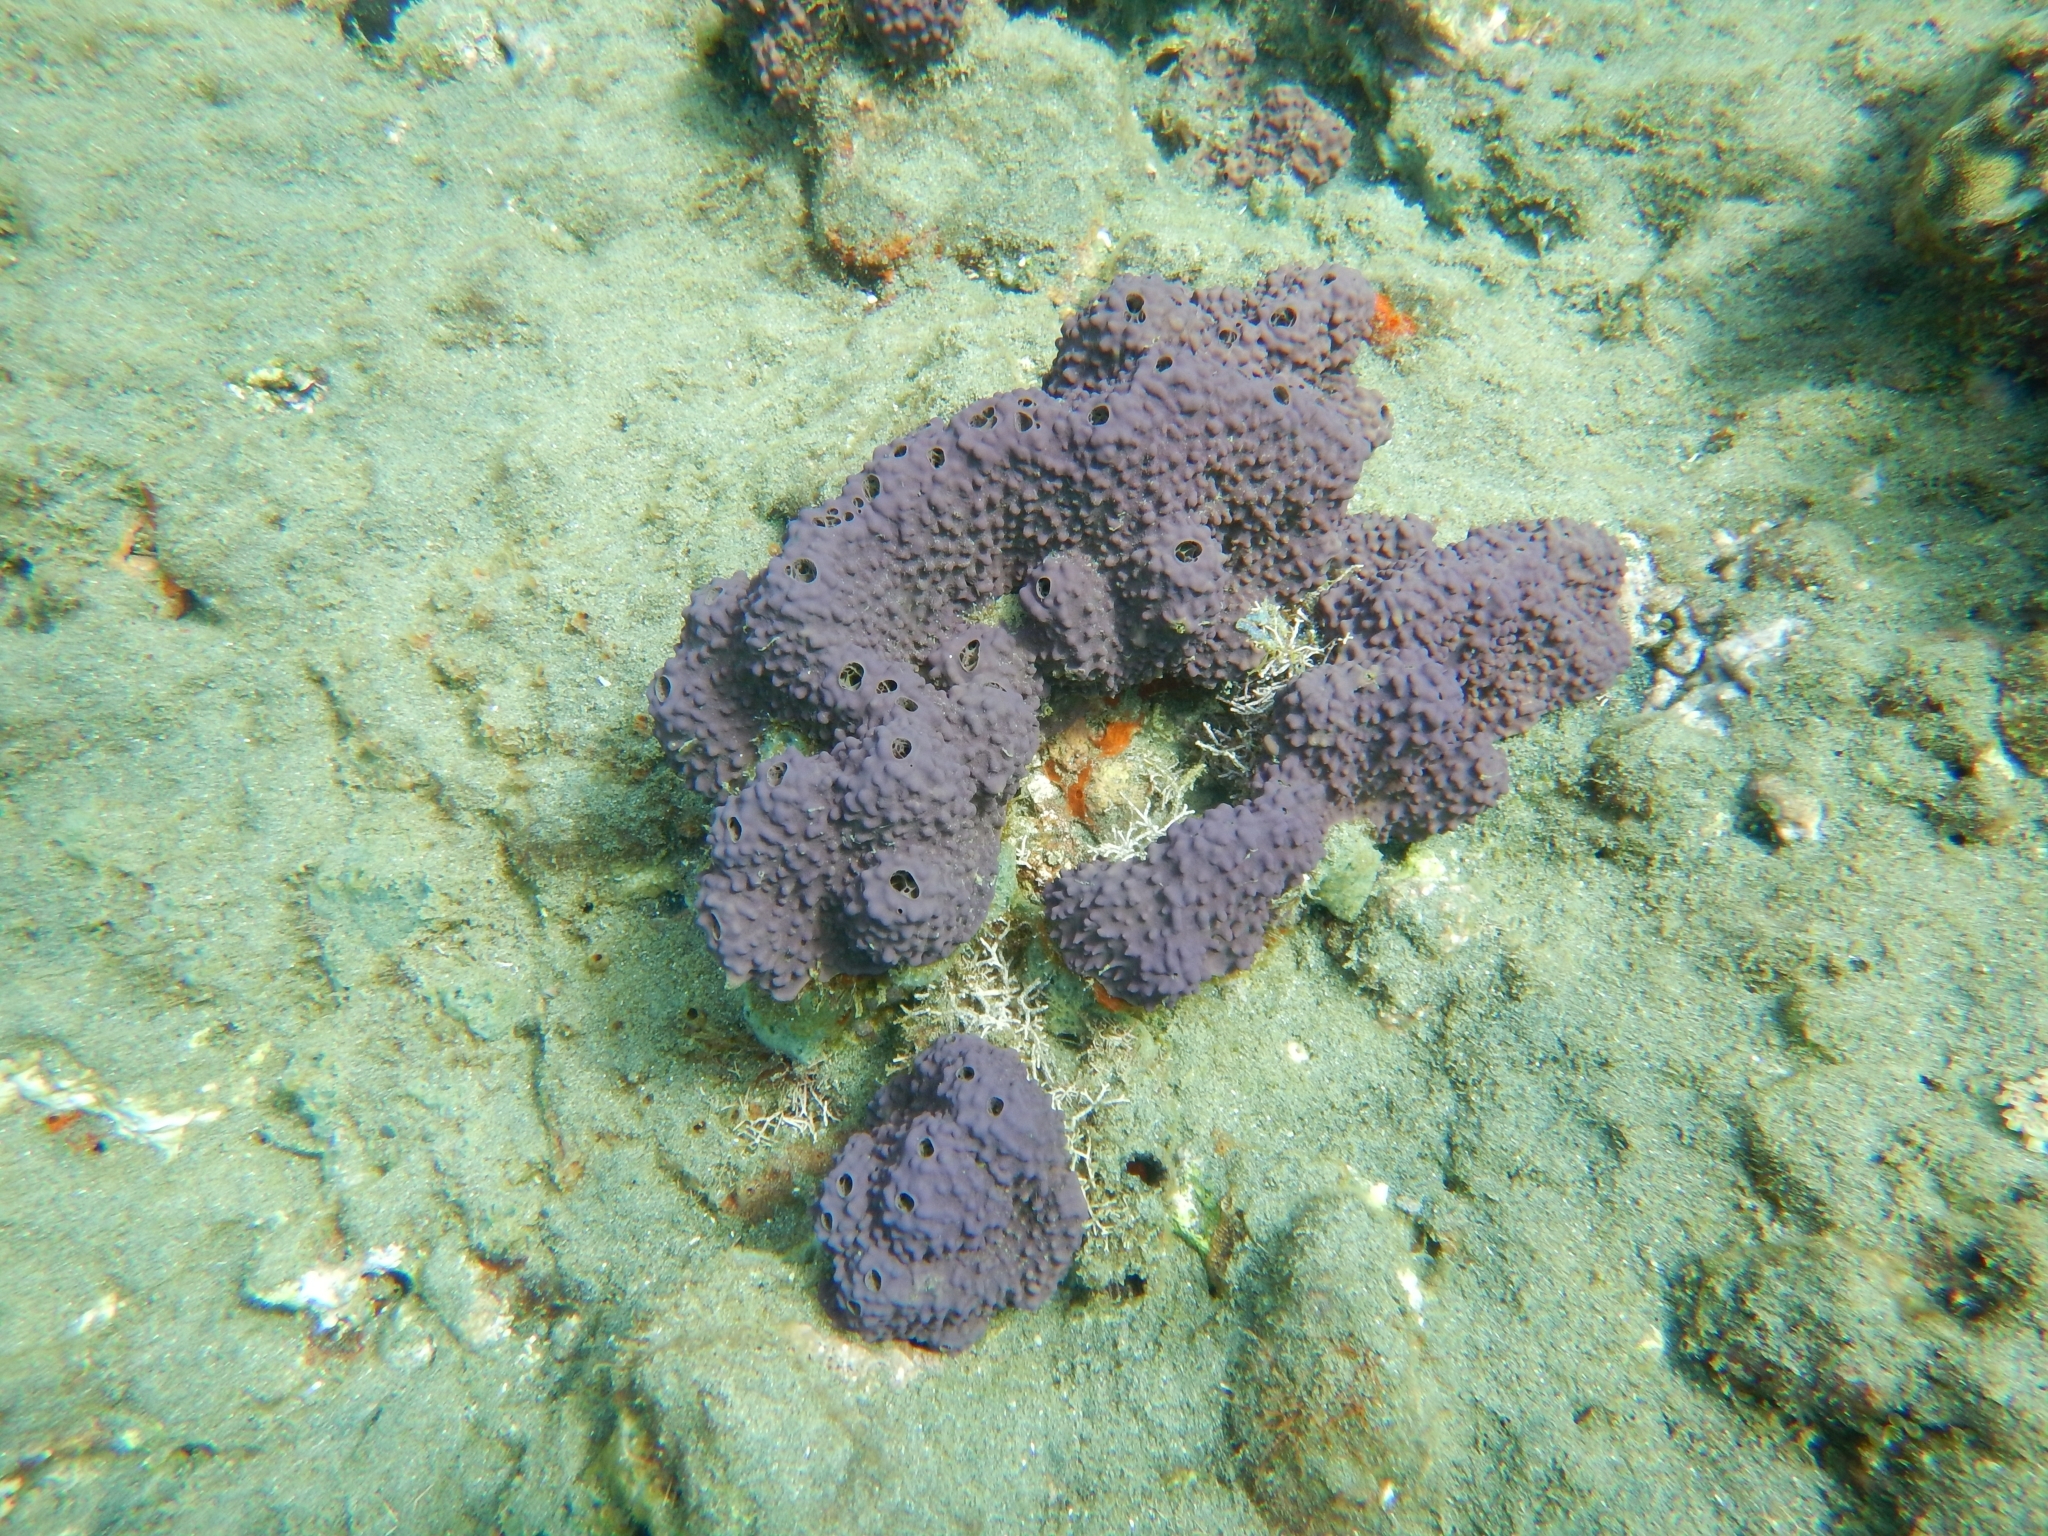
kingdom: Animalia
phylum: Porifera
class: Demospongiae
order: Verongiida
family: Aplysinidae
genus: Aiolochroia
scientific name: Aiolochroia crassa
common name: Branching tube sponge
